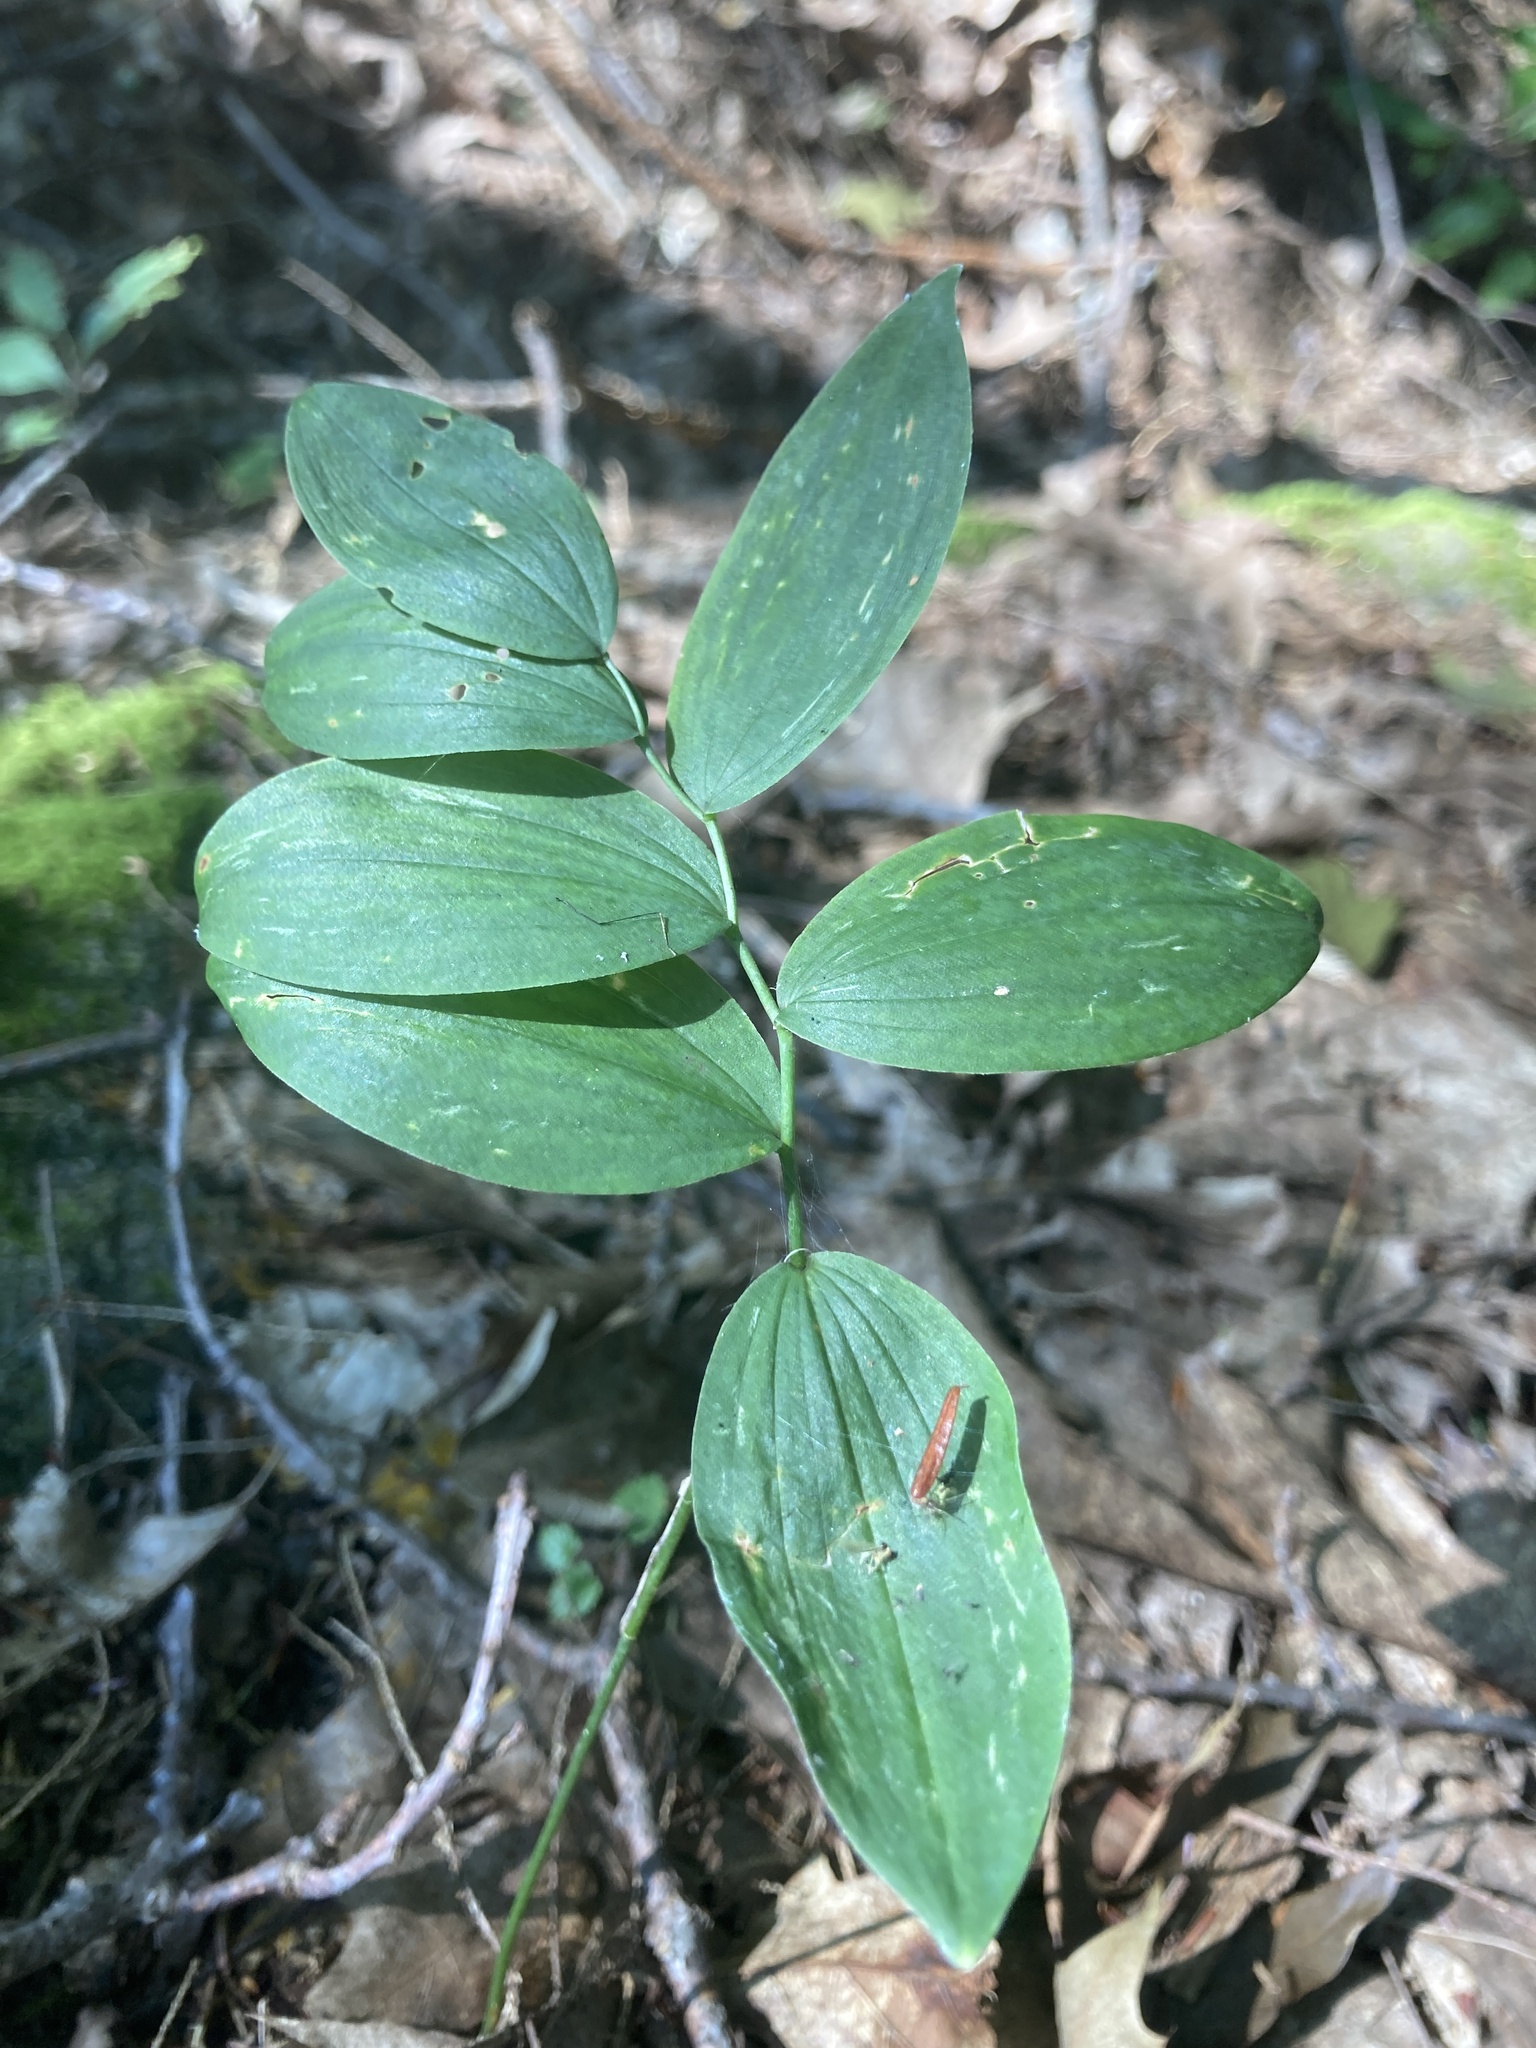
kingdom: Plantae
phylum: Tracheophyta
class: Liliopsida
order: Asparagales
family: Asparagaceae
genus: Polygonatum
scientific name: Polygonatum pubescens
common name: Downy solomon's seal
